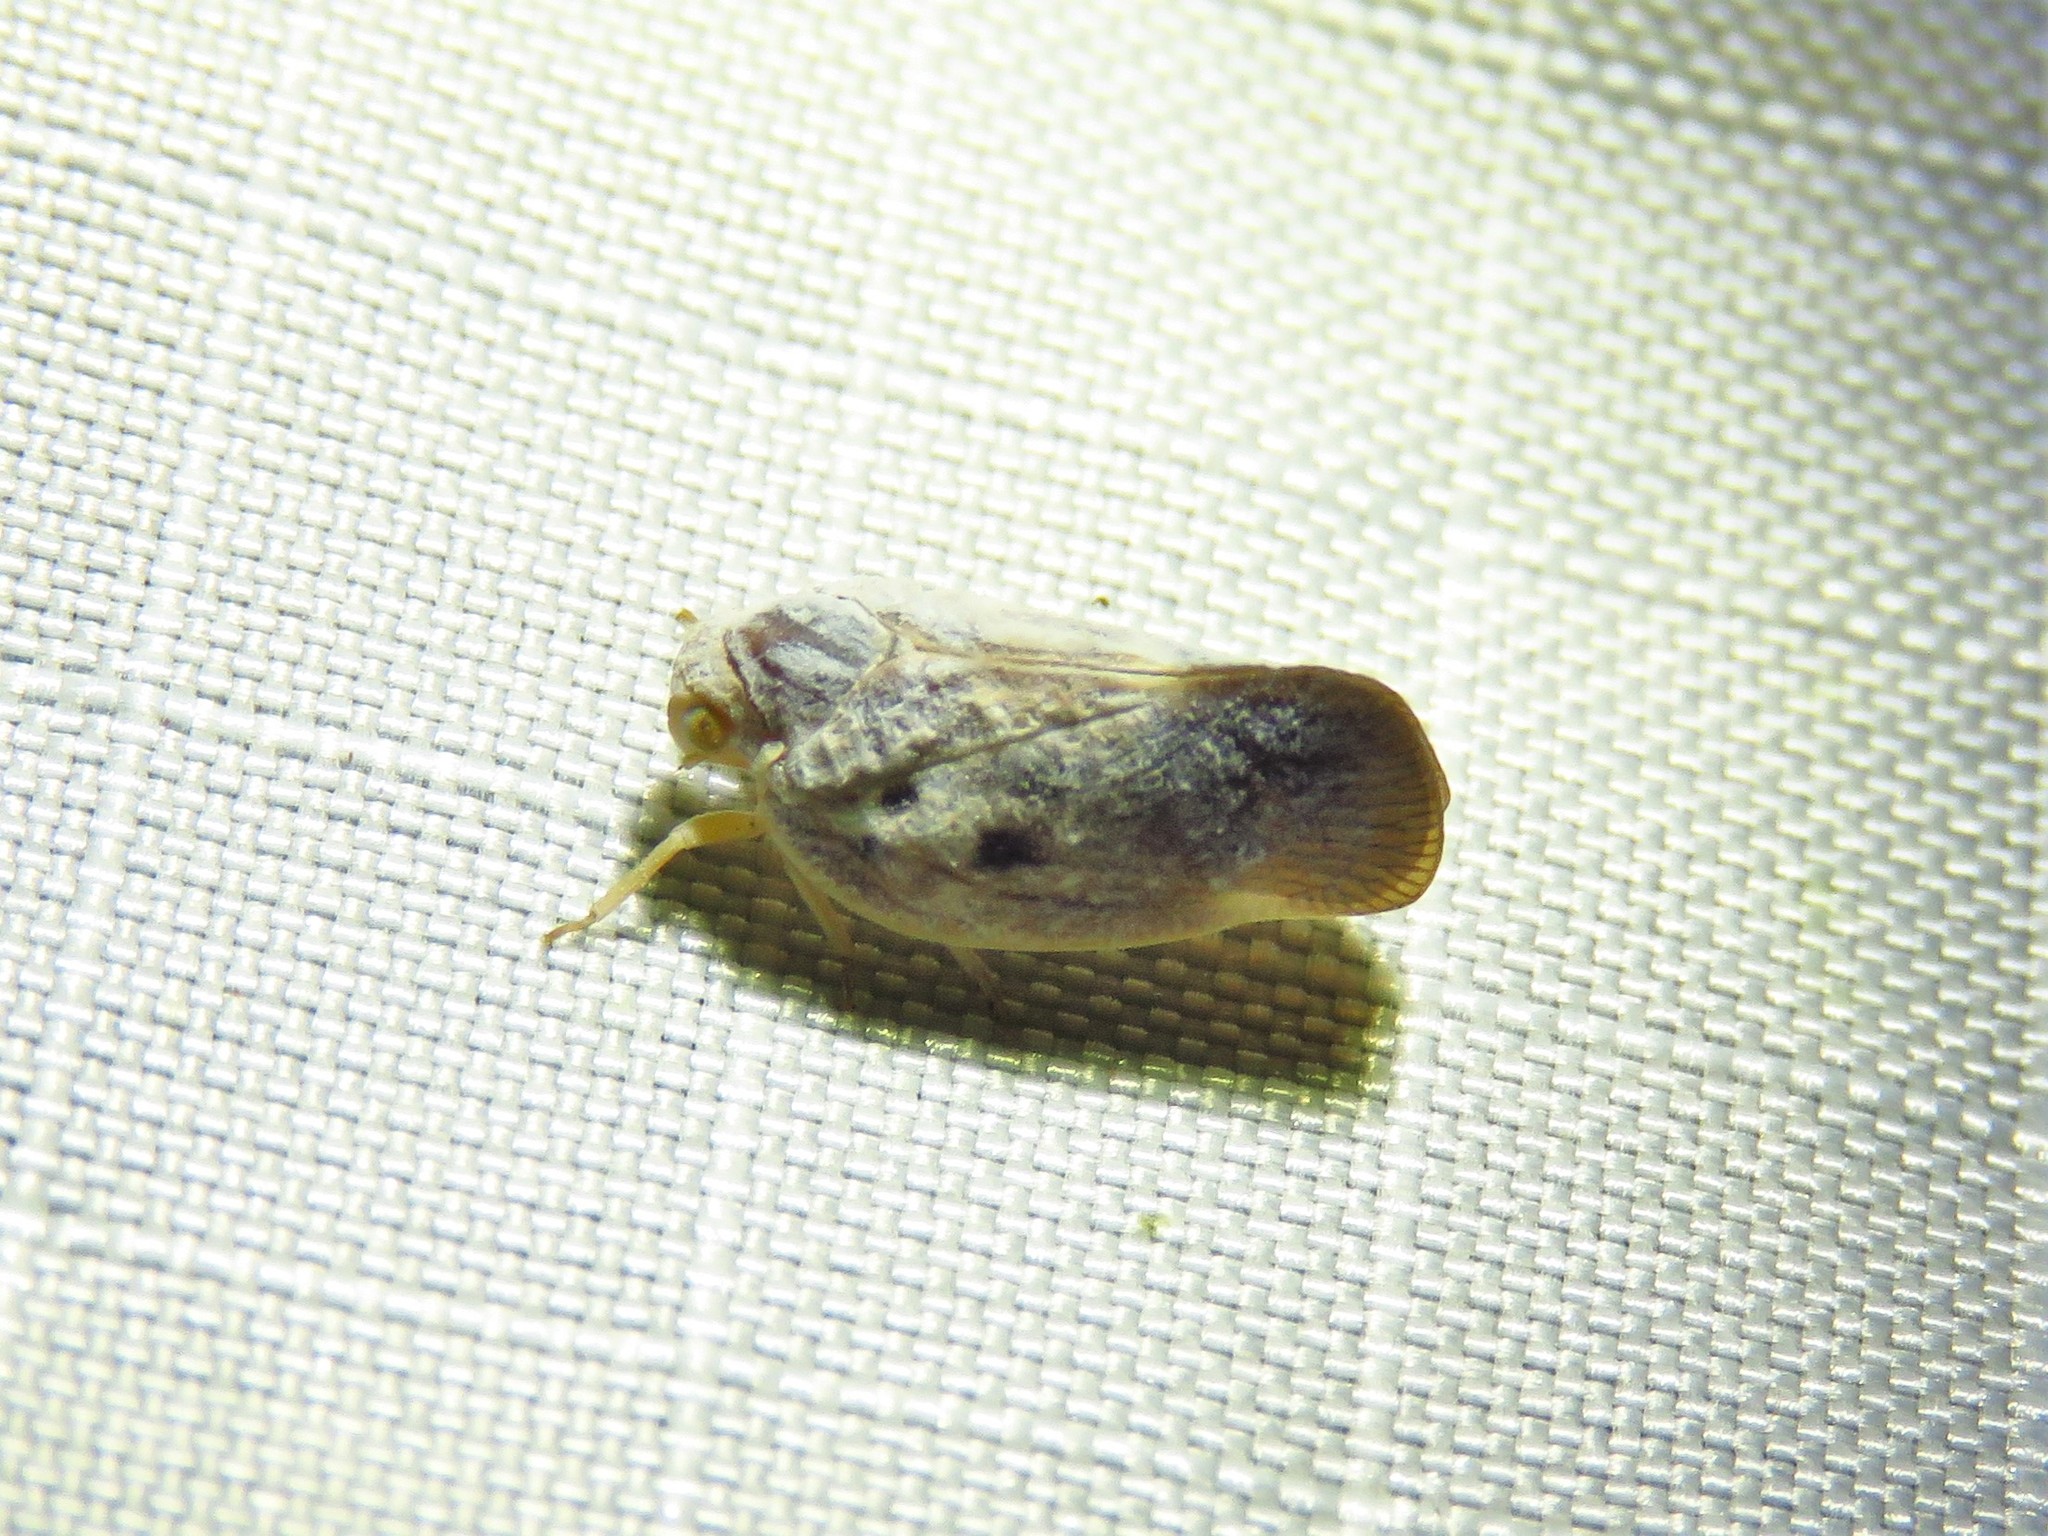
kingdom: Animalia
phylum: Arthropoda
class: Insecta
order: Hemiptera
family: Flatidae
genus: Metcalfa
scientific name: Metcalfa pruinosa
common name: Citrus flatid planthopper
